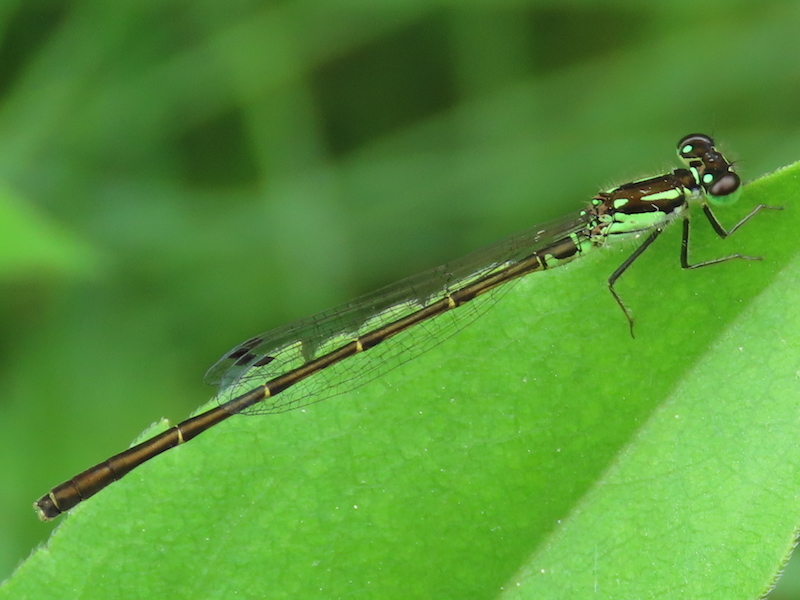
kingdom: Animalia
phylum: Arthropoda
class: Insecta
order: Odonata
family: Coenagrionidae
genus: Ischnura
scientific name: Ischnura posita
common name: Fragile forktail
